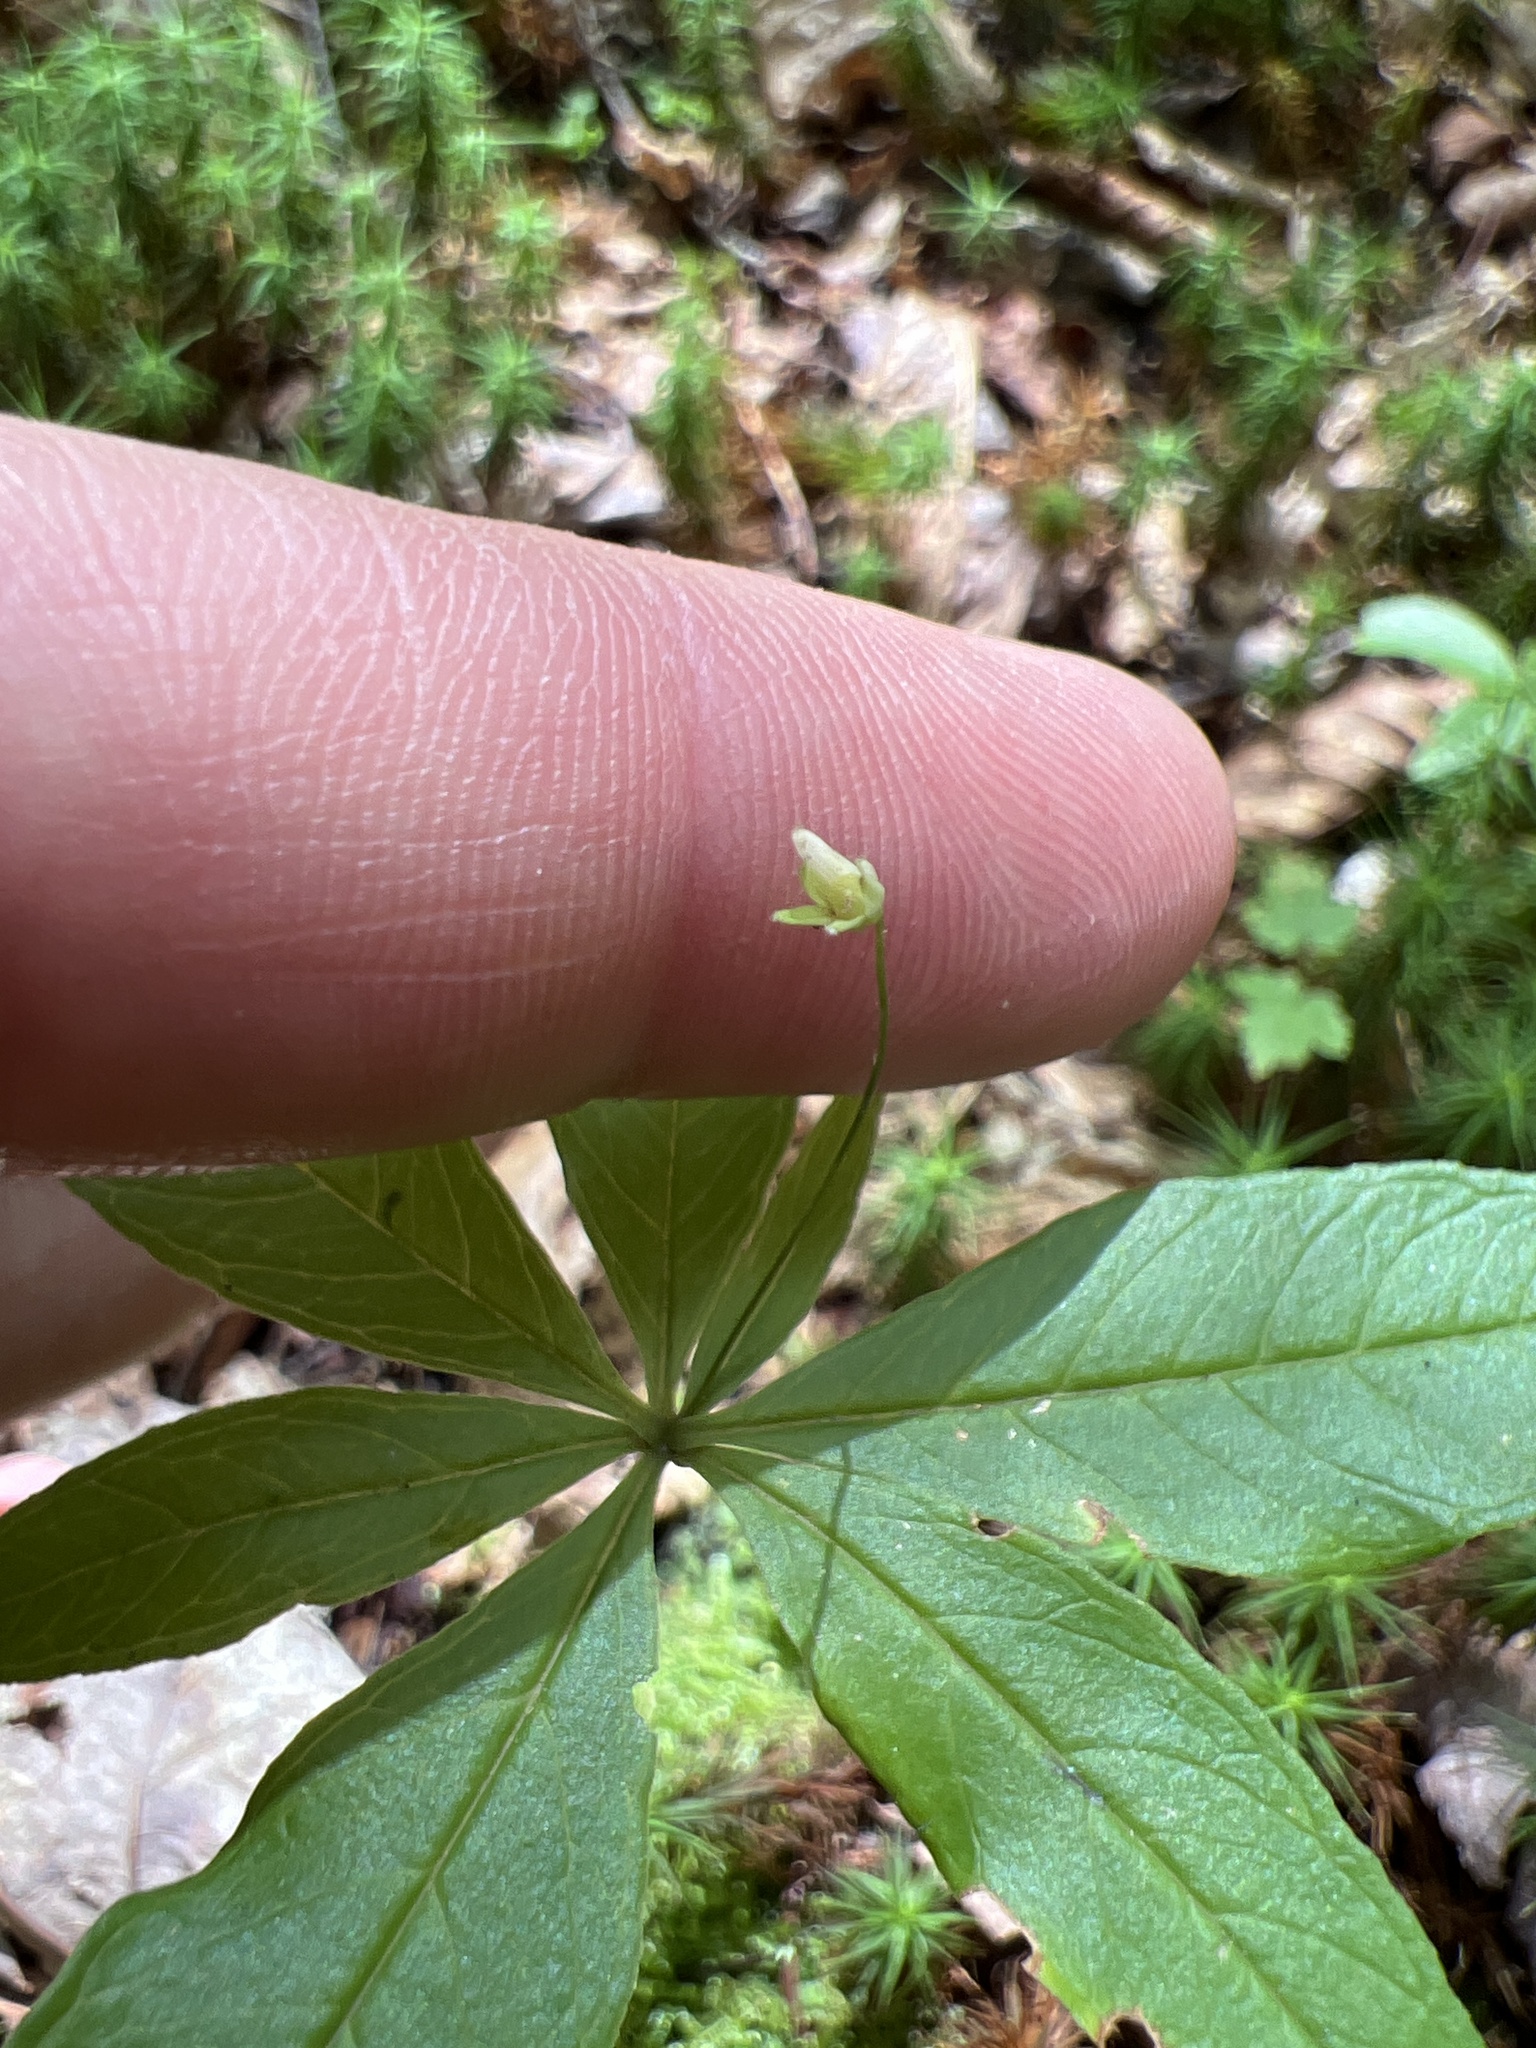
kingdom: Plantae
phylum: Tracheophyta
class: Magnoliopsida
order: Ericales
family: Primulaceae
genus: Lysimachia
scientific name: Lysimachia borealis
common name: American starflower
